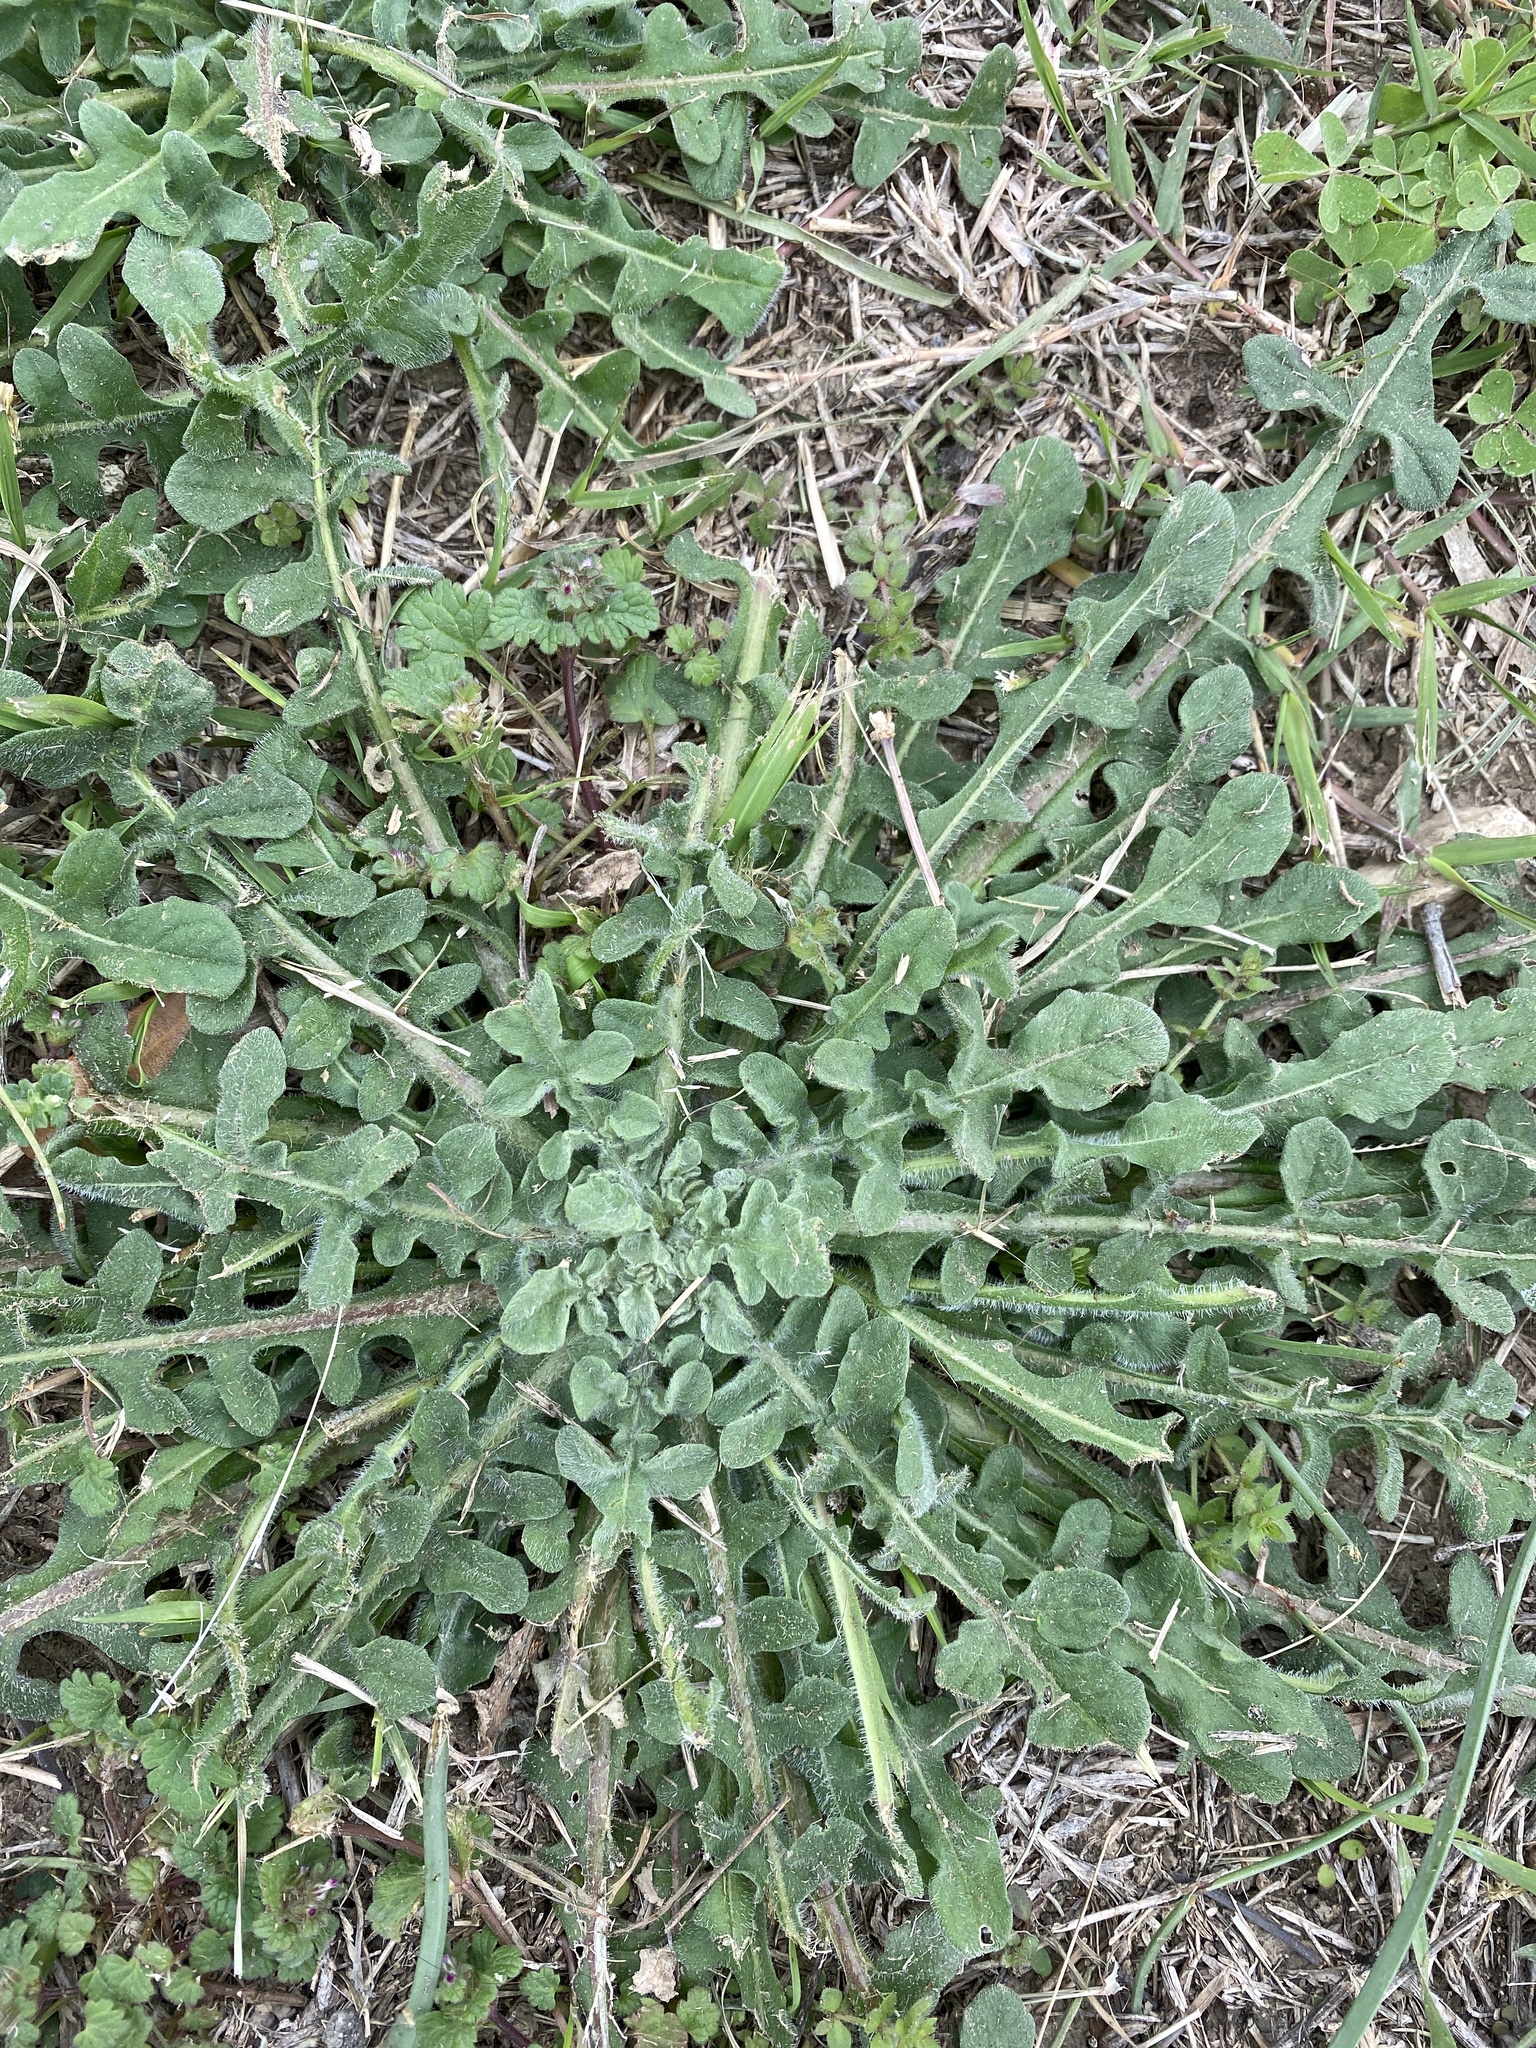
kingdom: Plantae
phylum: Tracheophyta
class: Magnoliopsida
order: Asterales
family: Asteraceae
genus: Centaurea
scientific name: Centaurea melitensis
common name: Maltese star-thistle
